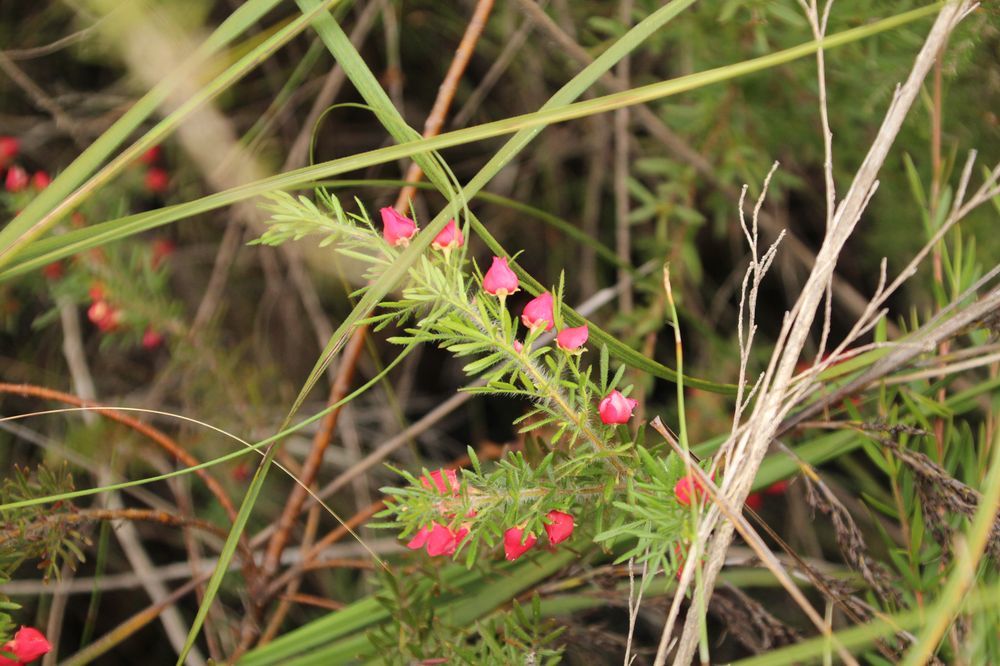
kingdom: Plantae
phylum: Tracheophyta
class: Magnoliopsida
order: Sapindales
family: Rutaceae
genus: Boronia
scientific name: Boronia molloyae
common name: Tall boronia
